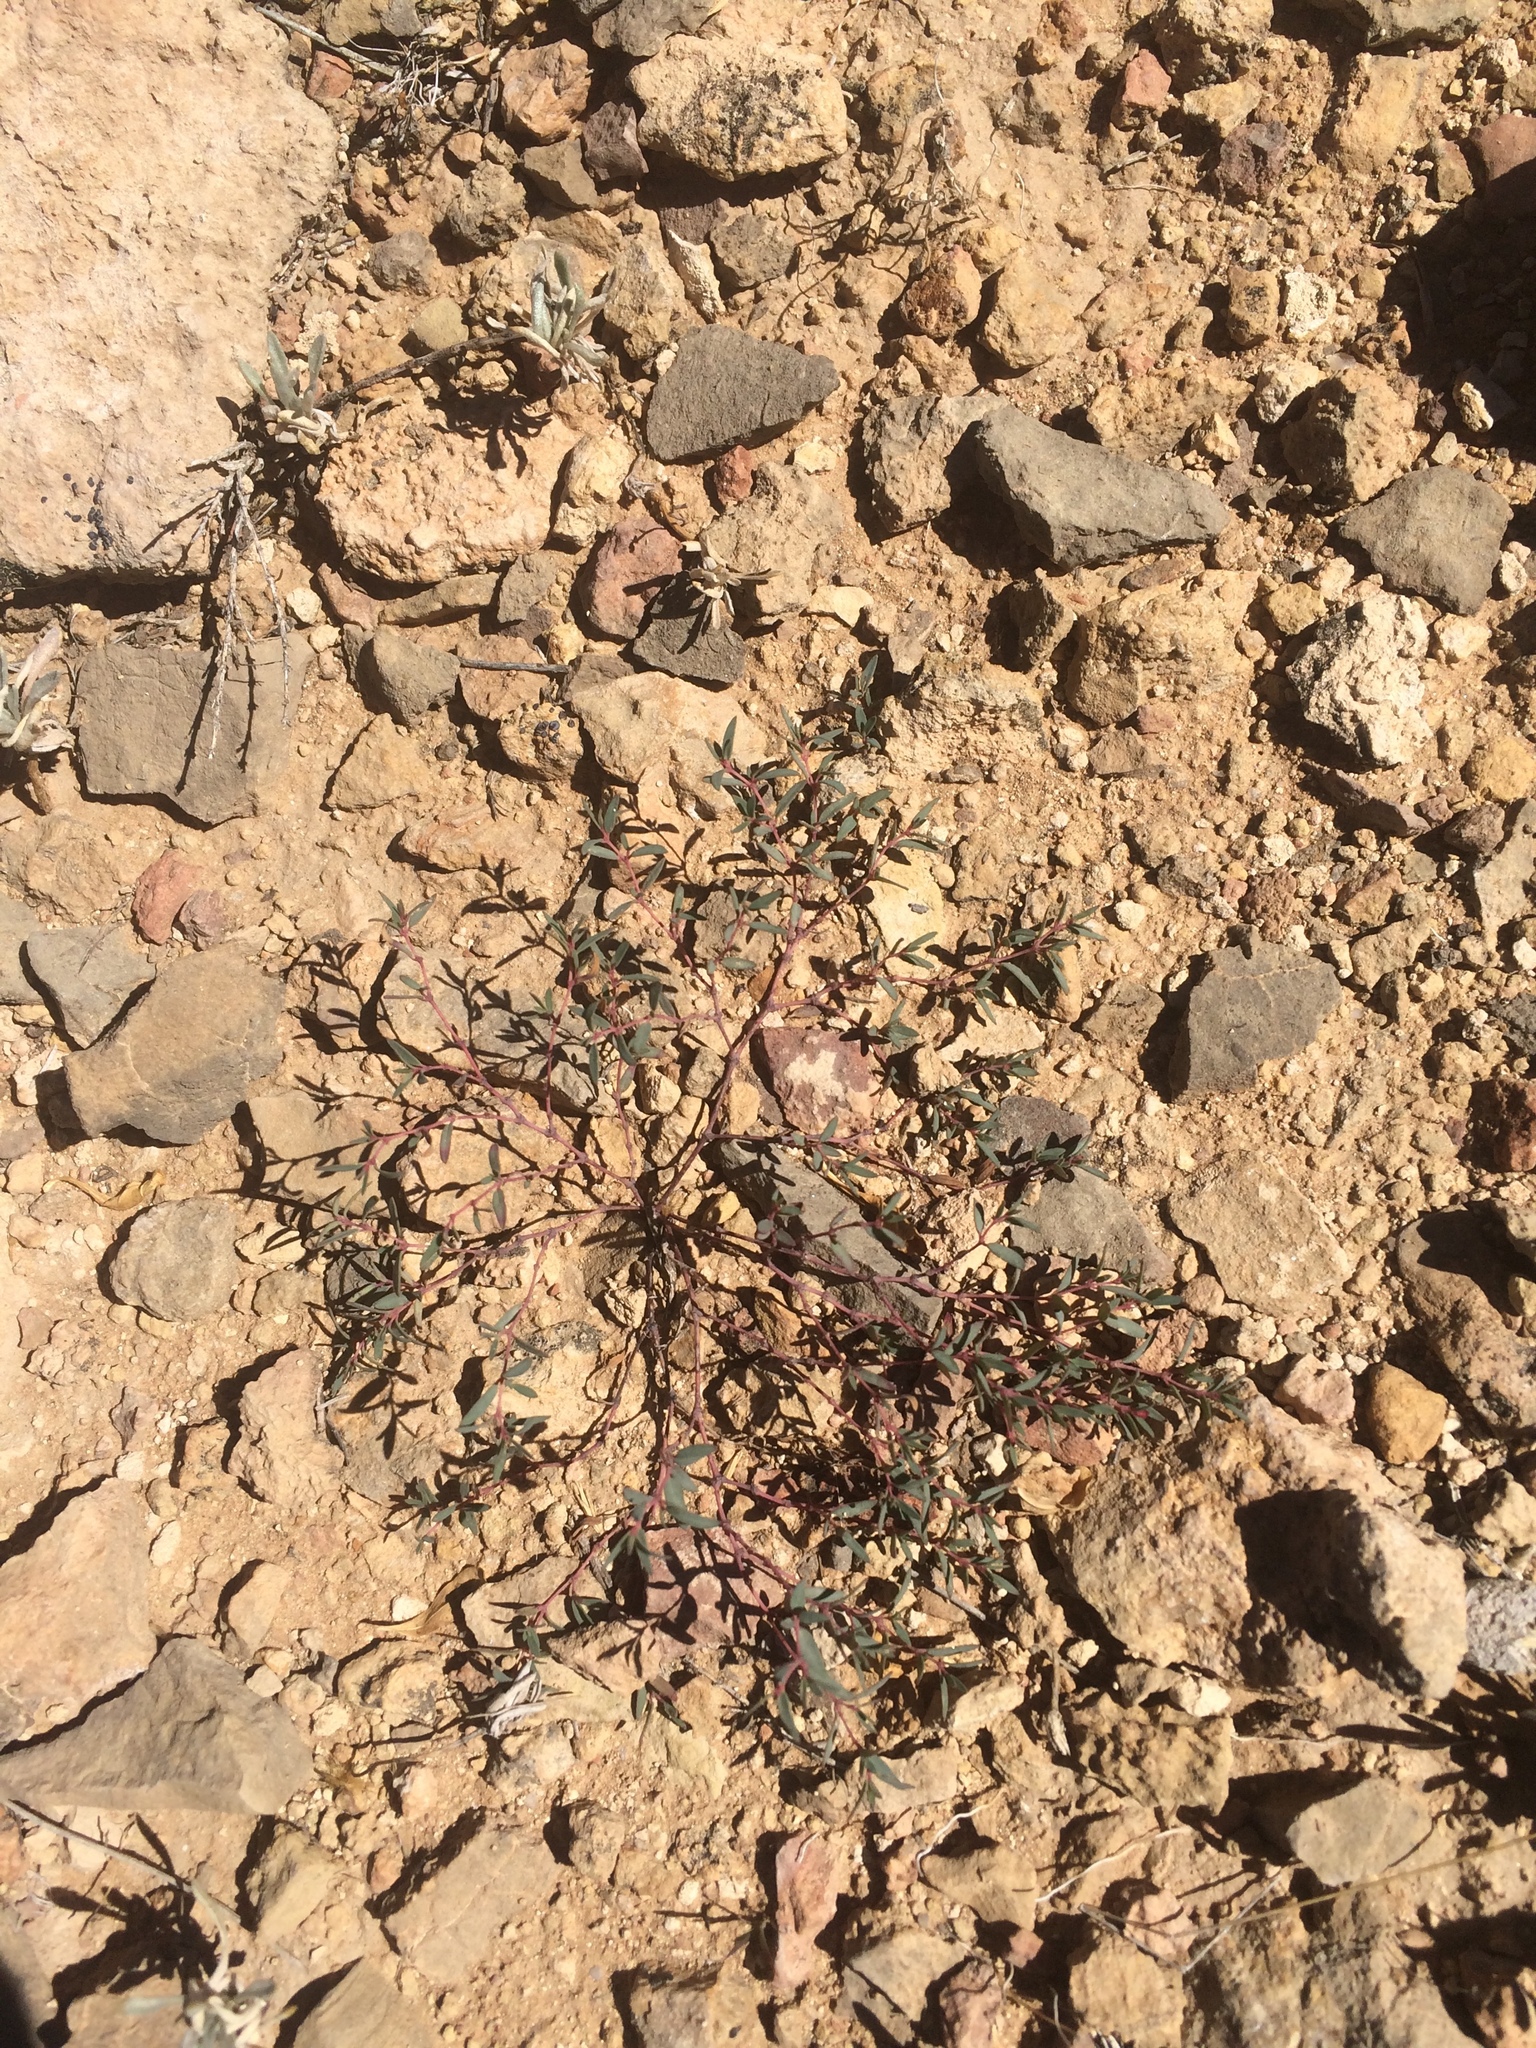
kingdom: Plantae
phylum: Tracheophyta
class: Magnoliopsida
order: Malpighiales
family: Euphorbiaceae
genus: Euphorbia
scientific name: Euphorbia chaetocalyx
